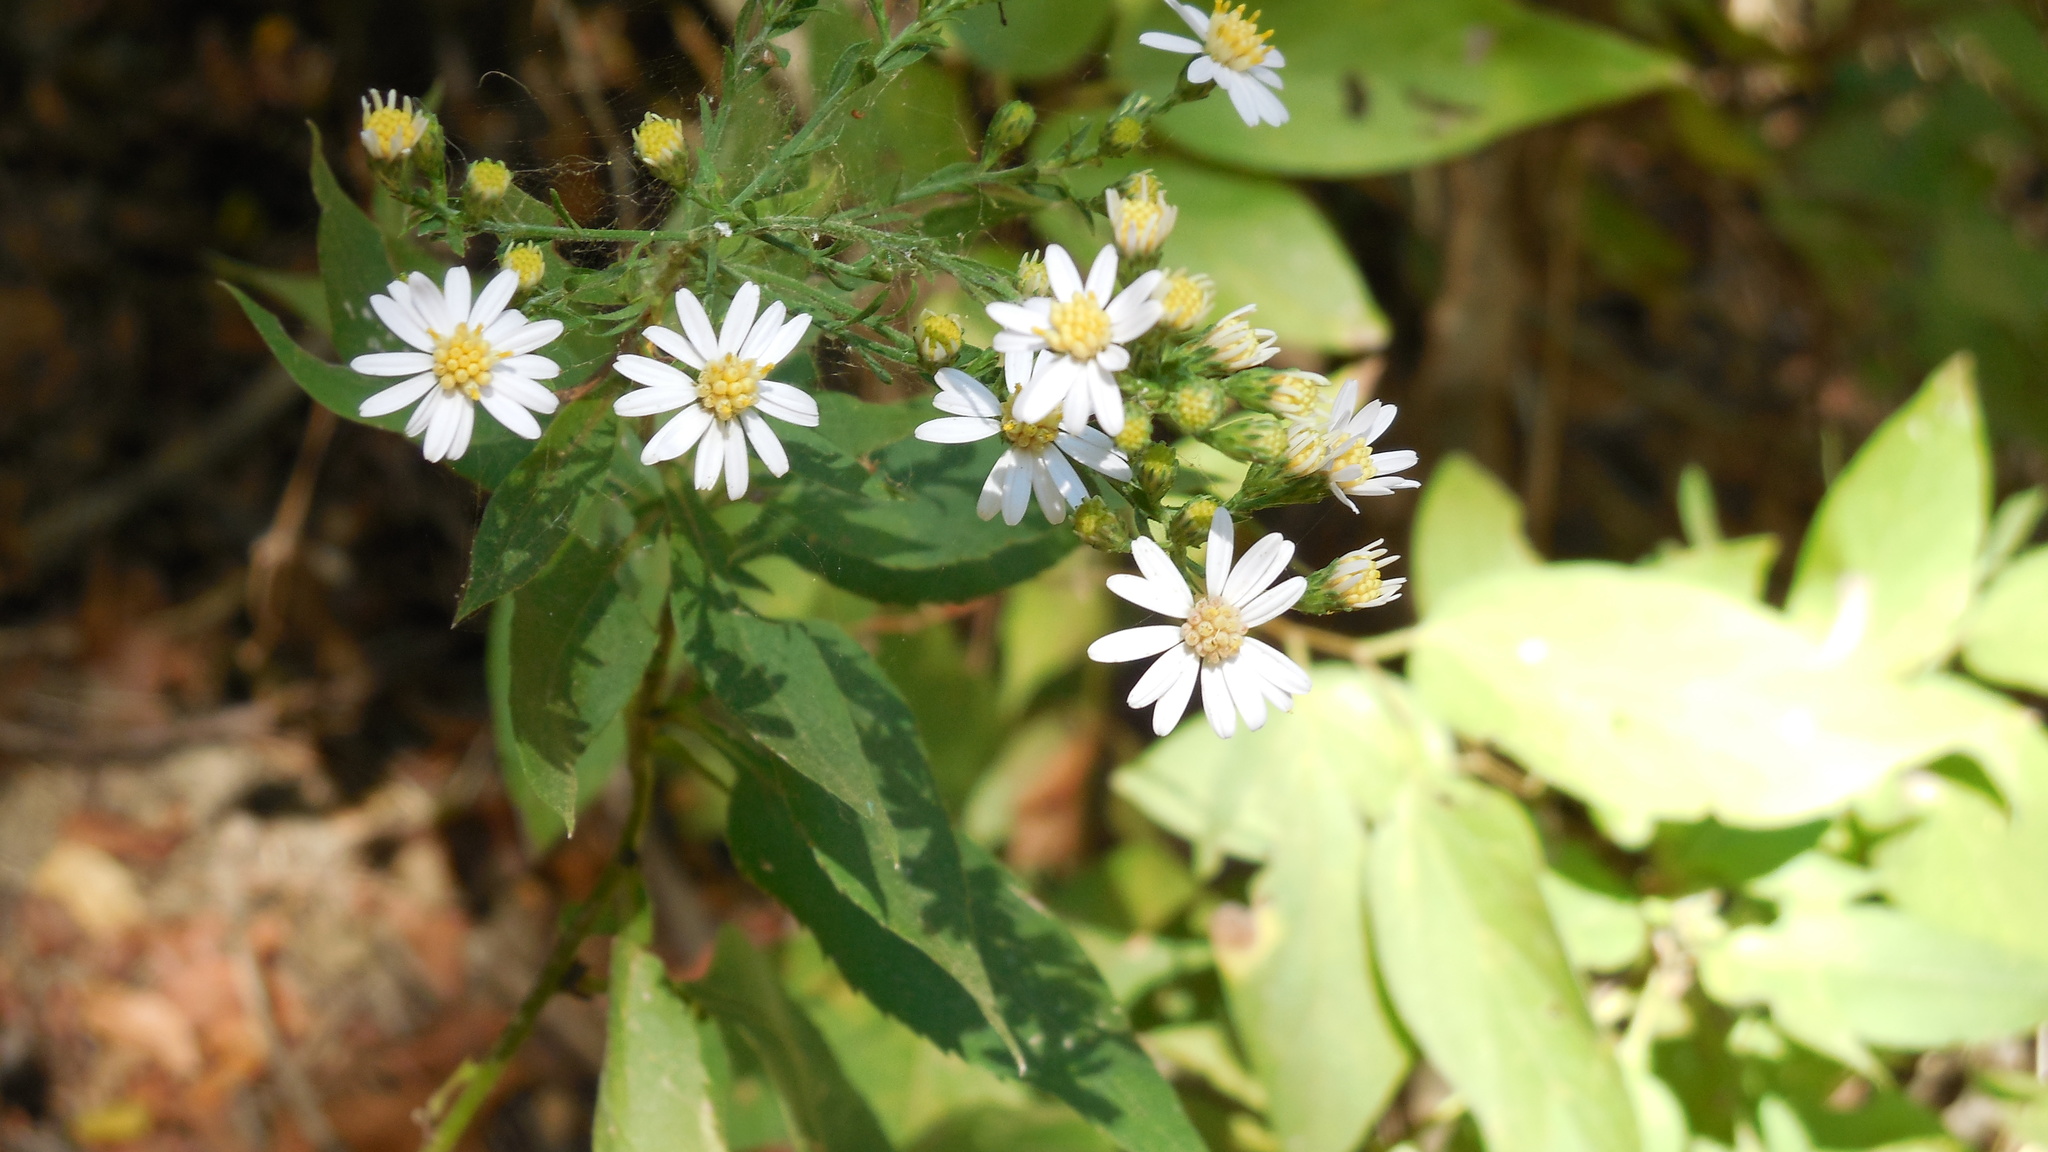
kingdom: Plantae
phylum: Tracheophyta
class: Magnoliopsida
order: Asterales
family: Asteraceae
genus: Symphyotrichum
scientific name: Symphyotrichum drummondii
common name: Drummond's aster
